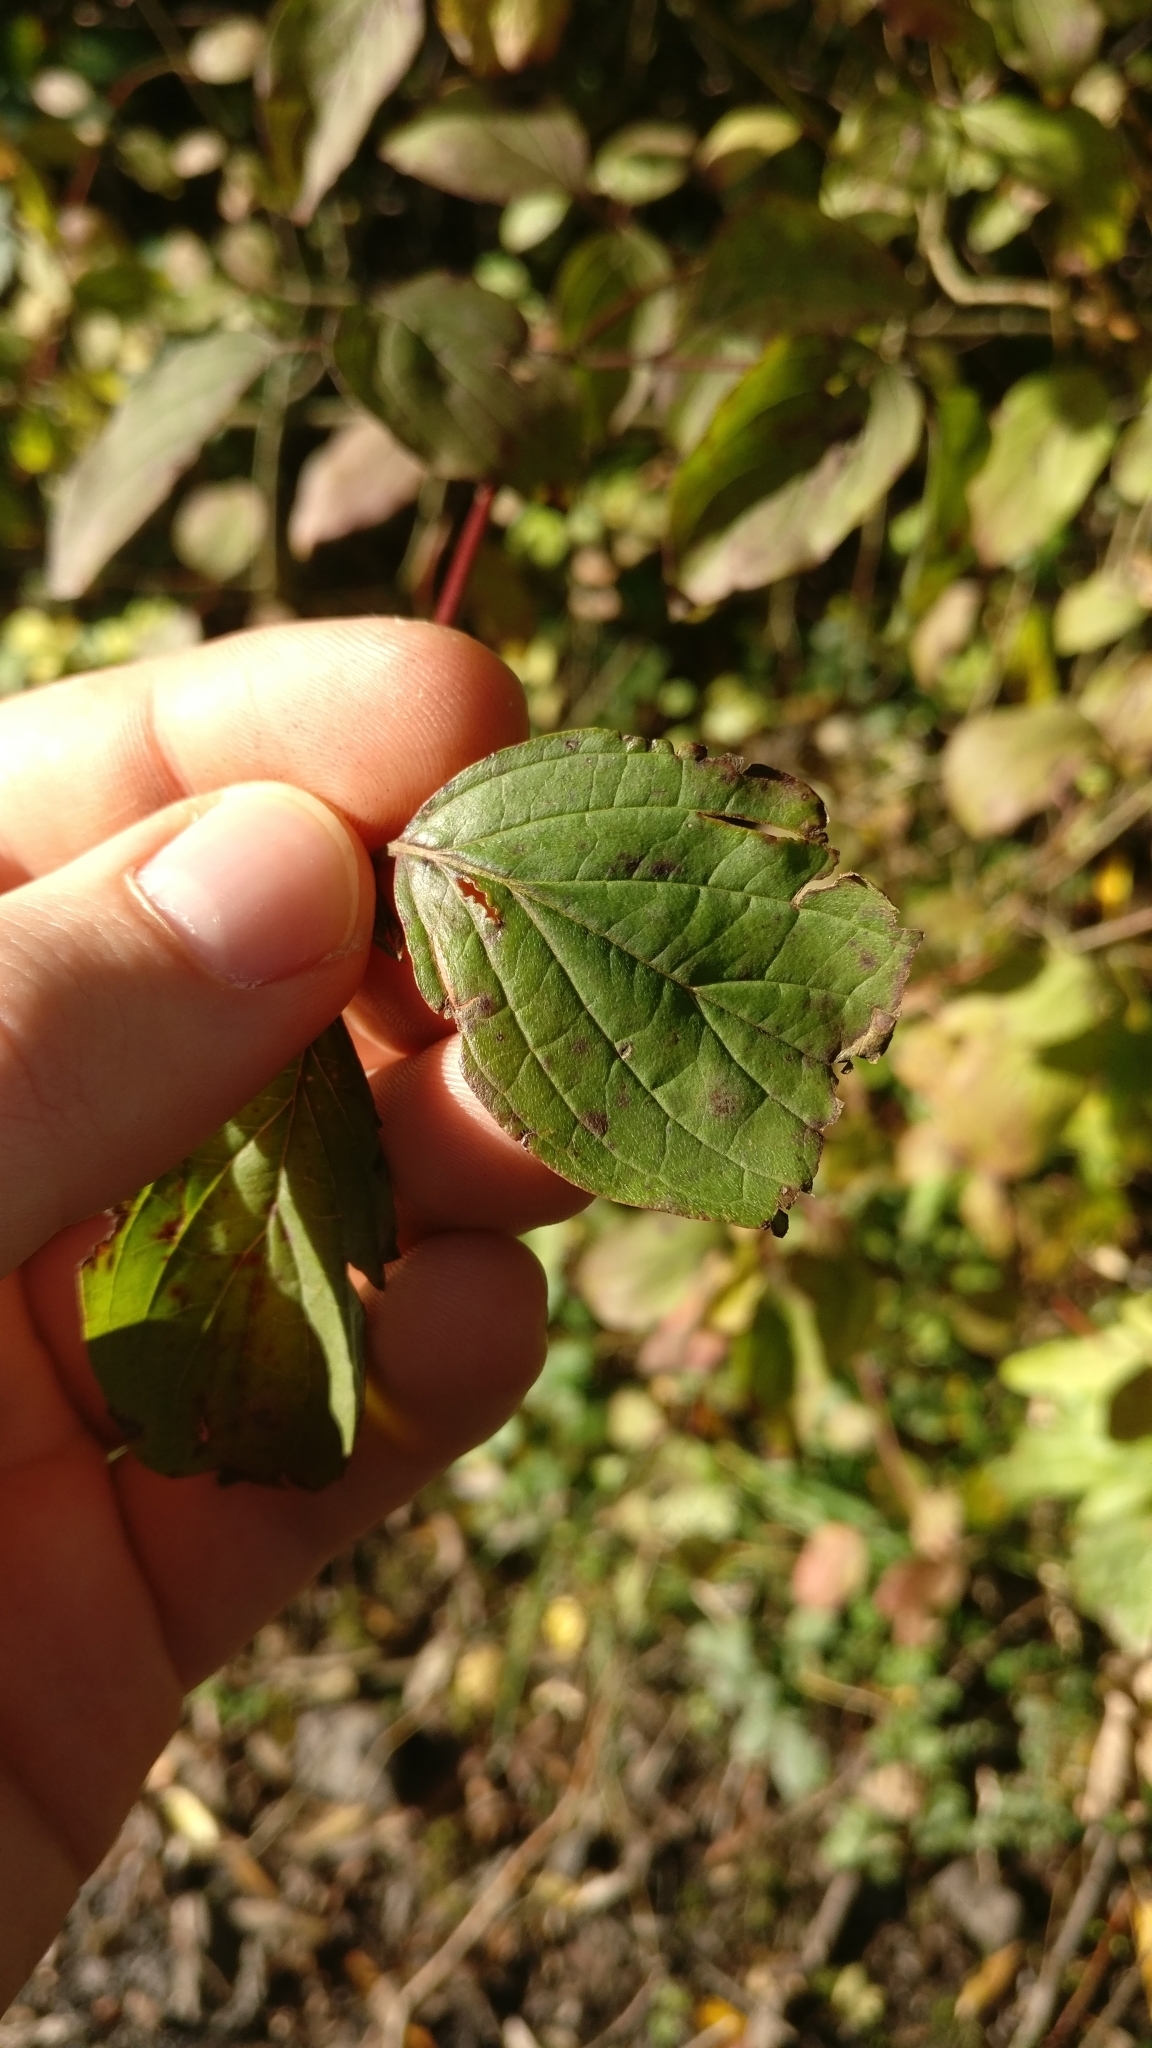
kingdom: Plantae
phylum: Tracheophyta
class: Magnoliopsida
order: Cornales
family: Cornaceae
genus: Cornus
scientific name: Cornus sanguinea
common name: Dogwood
